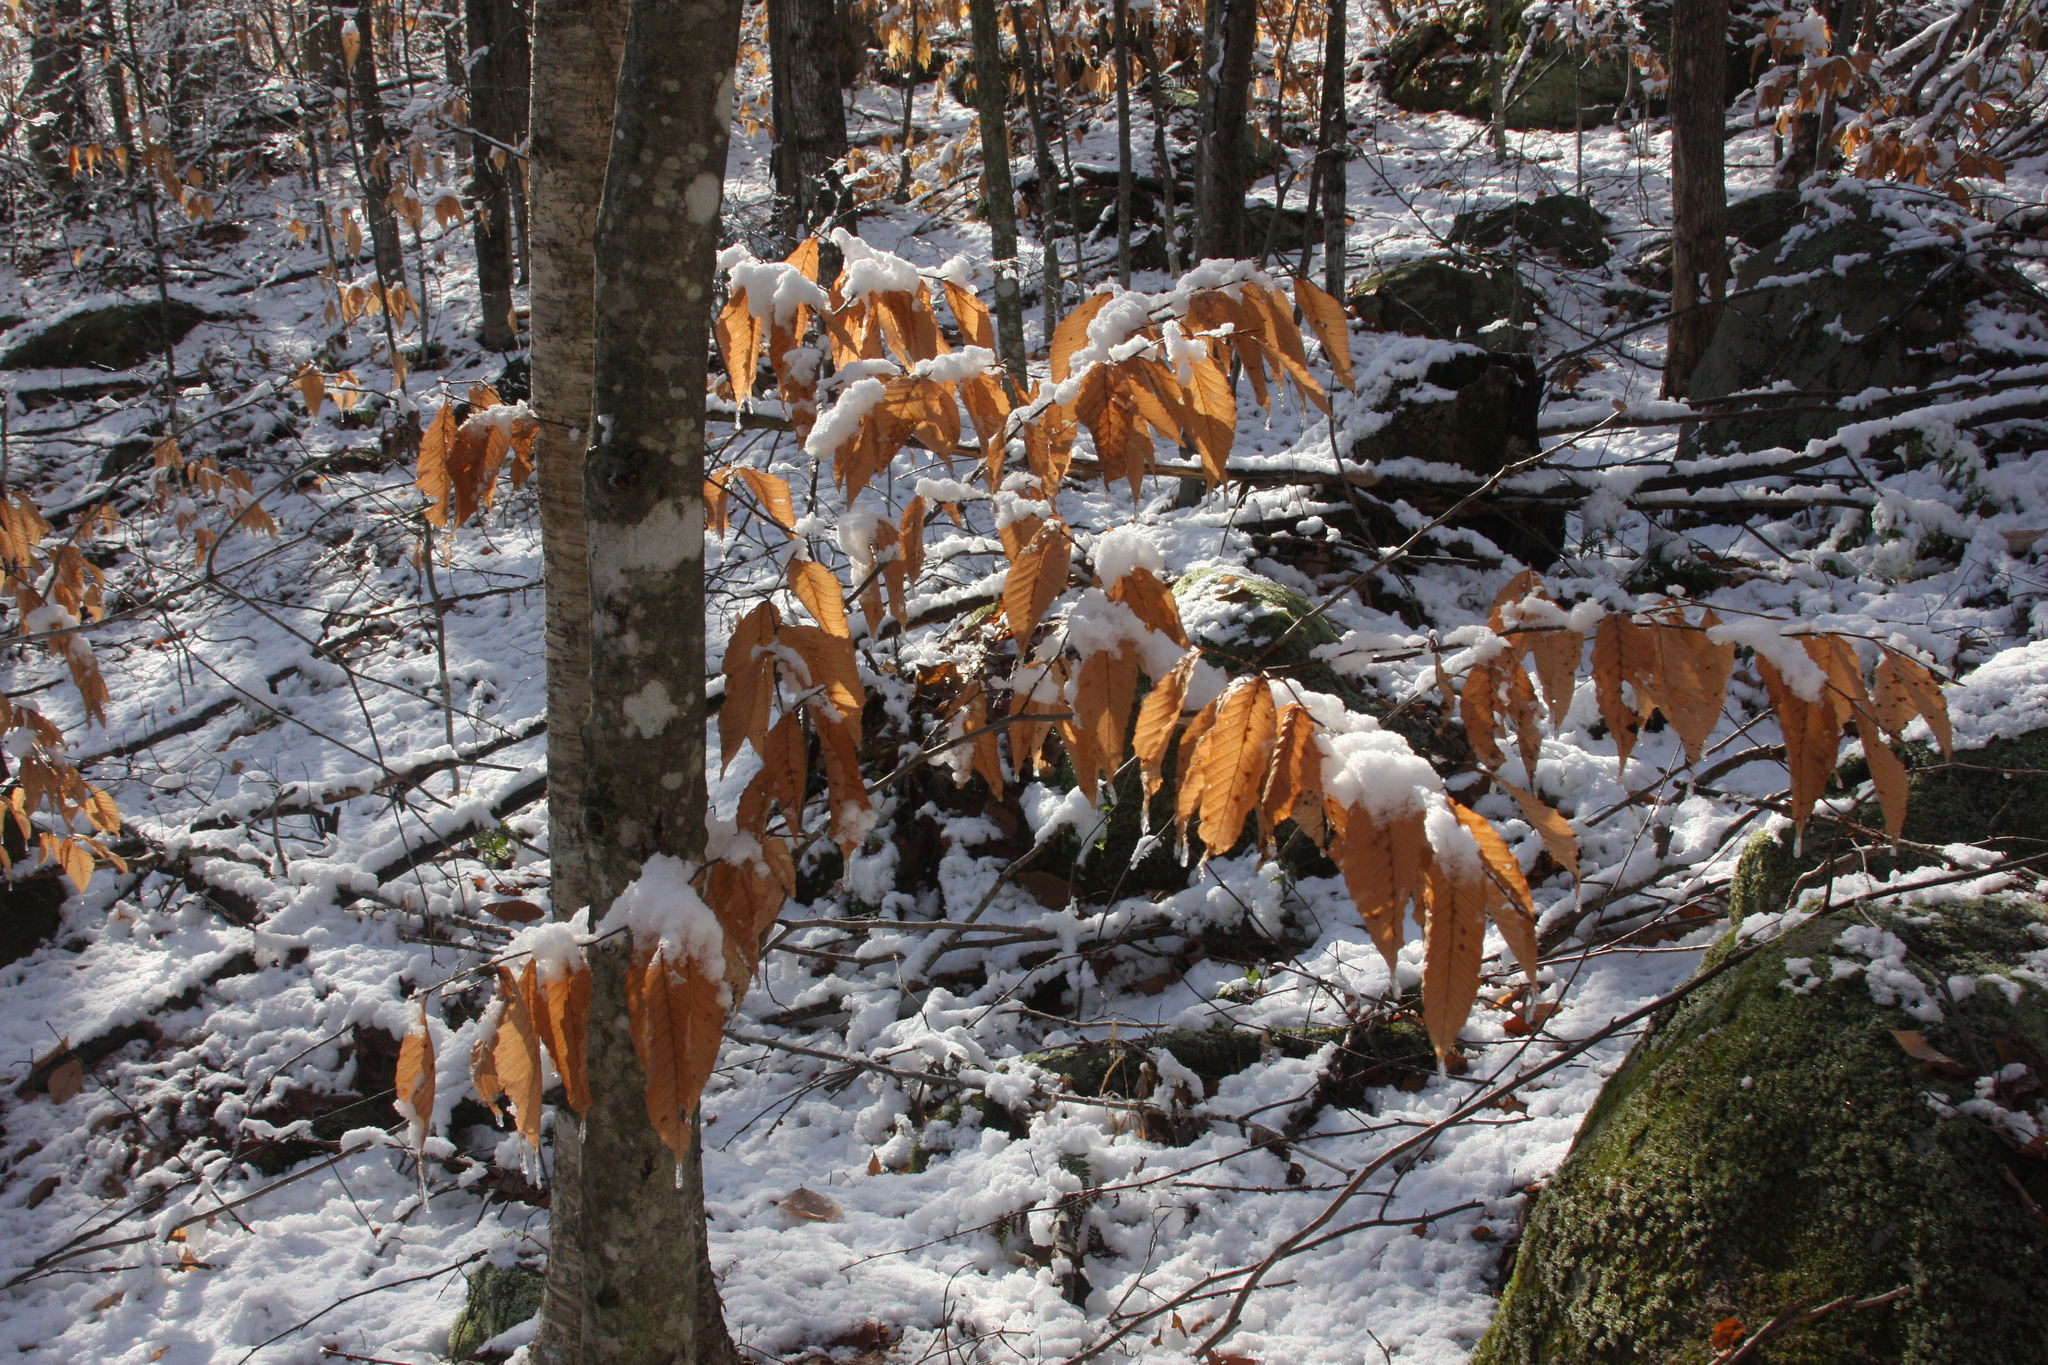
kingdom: Plantae
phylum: Tracheophyta
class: Magnoliopsida
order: Fagales
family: Fagaceae
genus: Fagus
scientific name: Fagus grandifolia
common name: American beech
